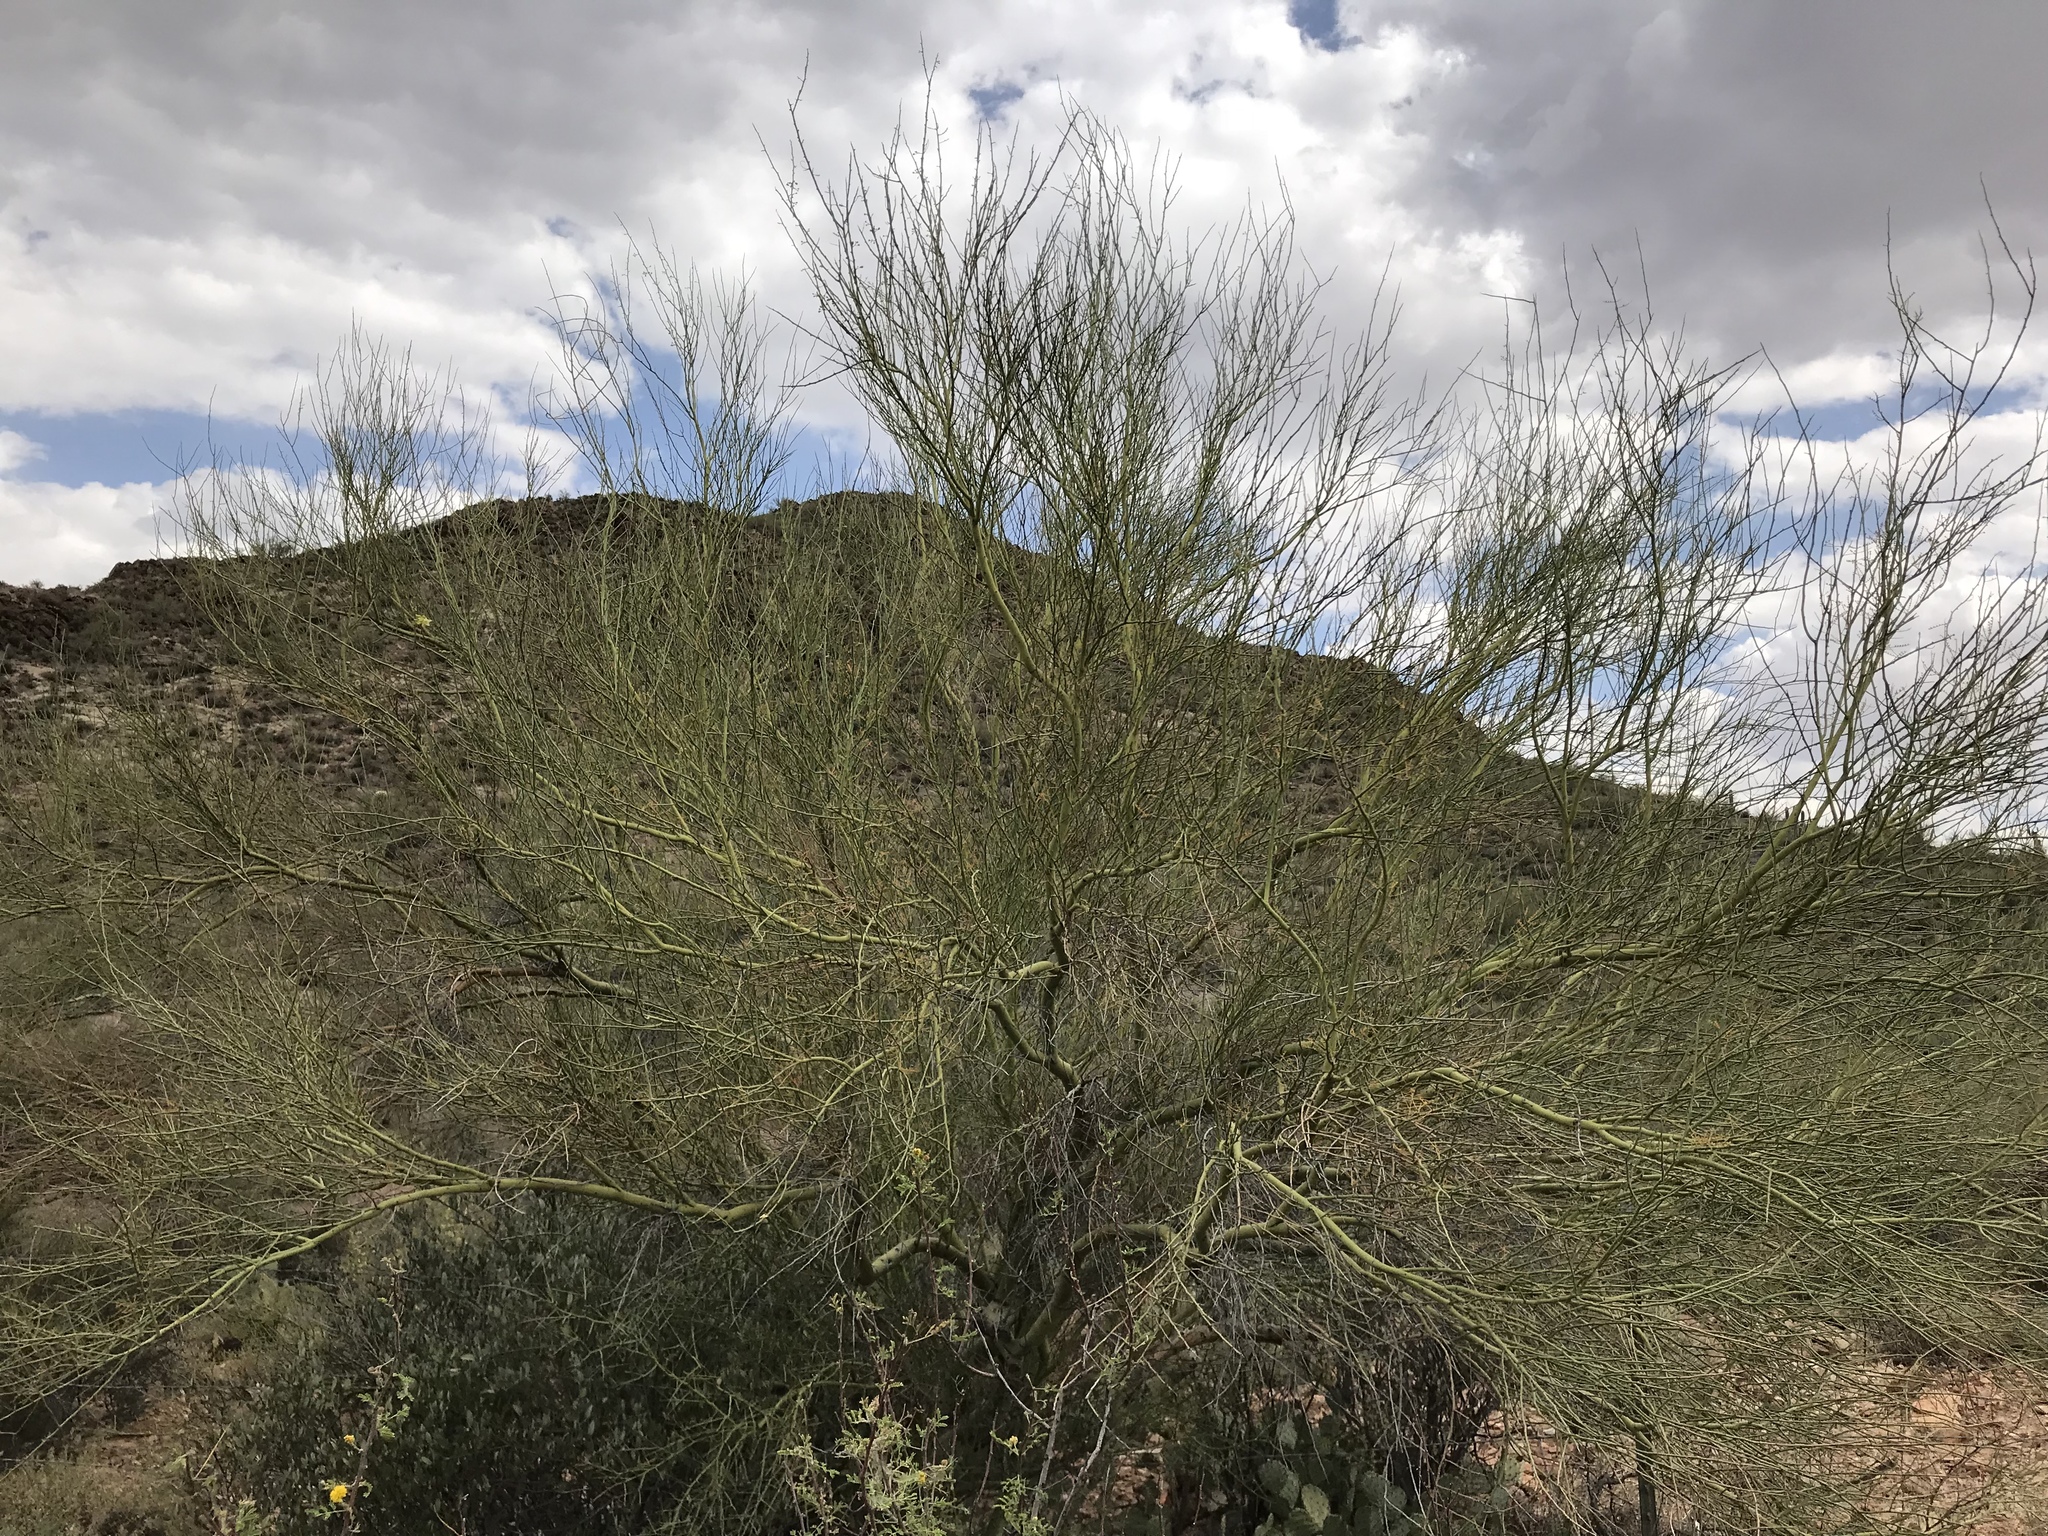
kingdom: Plantae
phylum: Tracheophyta
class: Magnoliopsida
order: Fabales
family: Fabaceae
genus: Parkinsonia
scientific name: Parkinsonia microphylla
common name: Yellow paloverde
